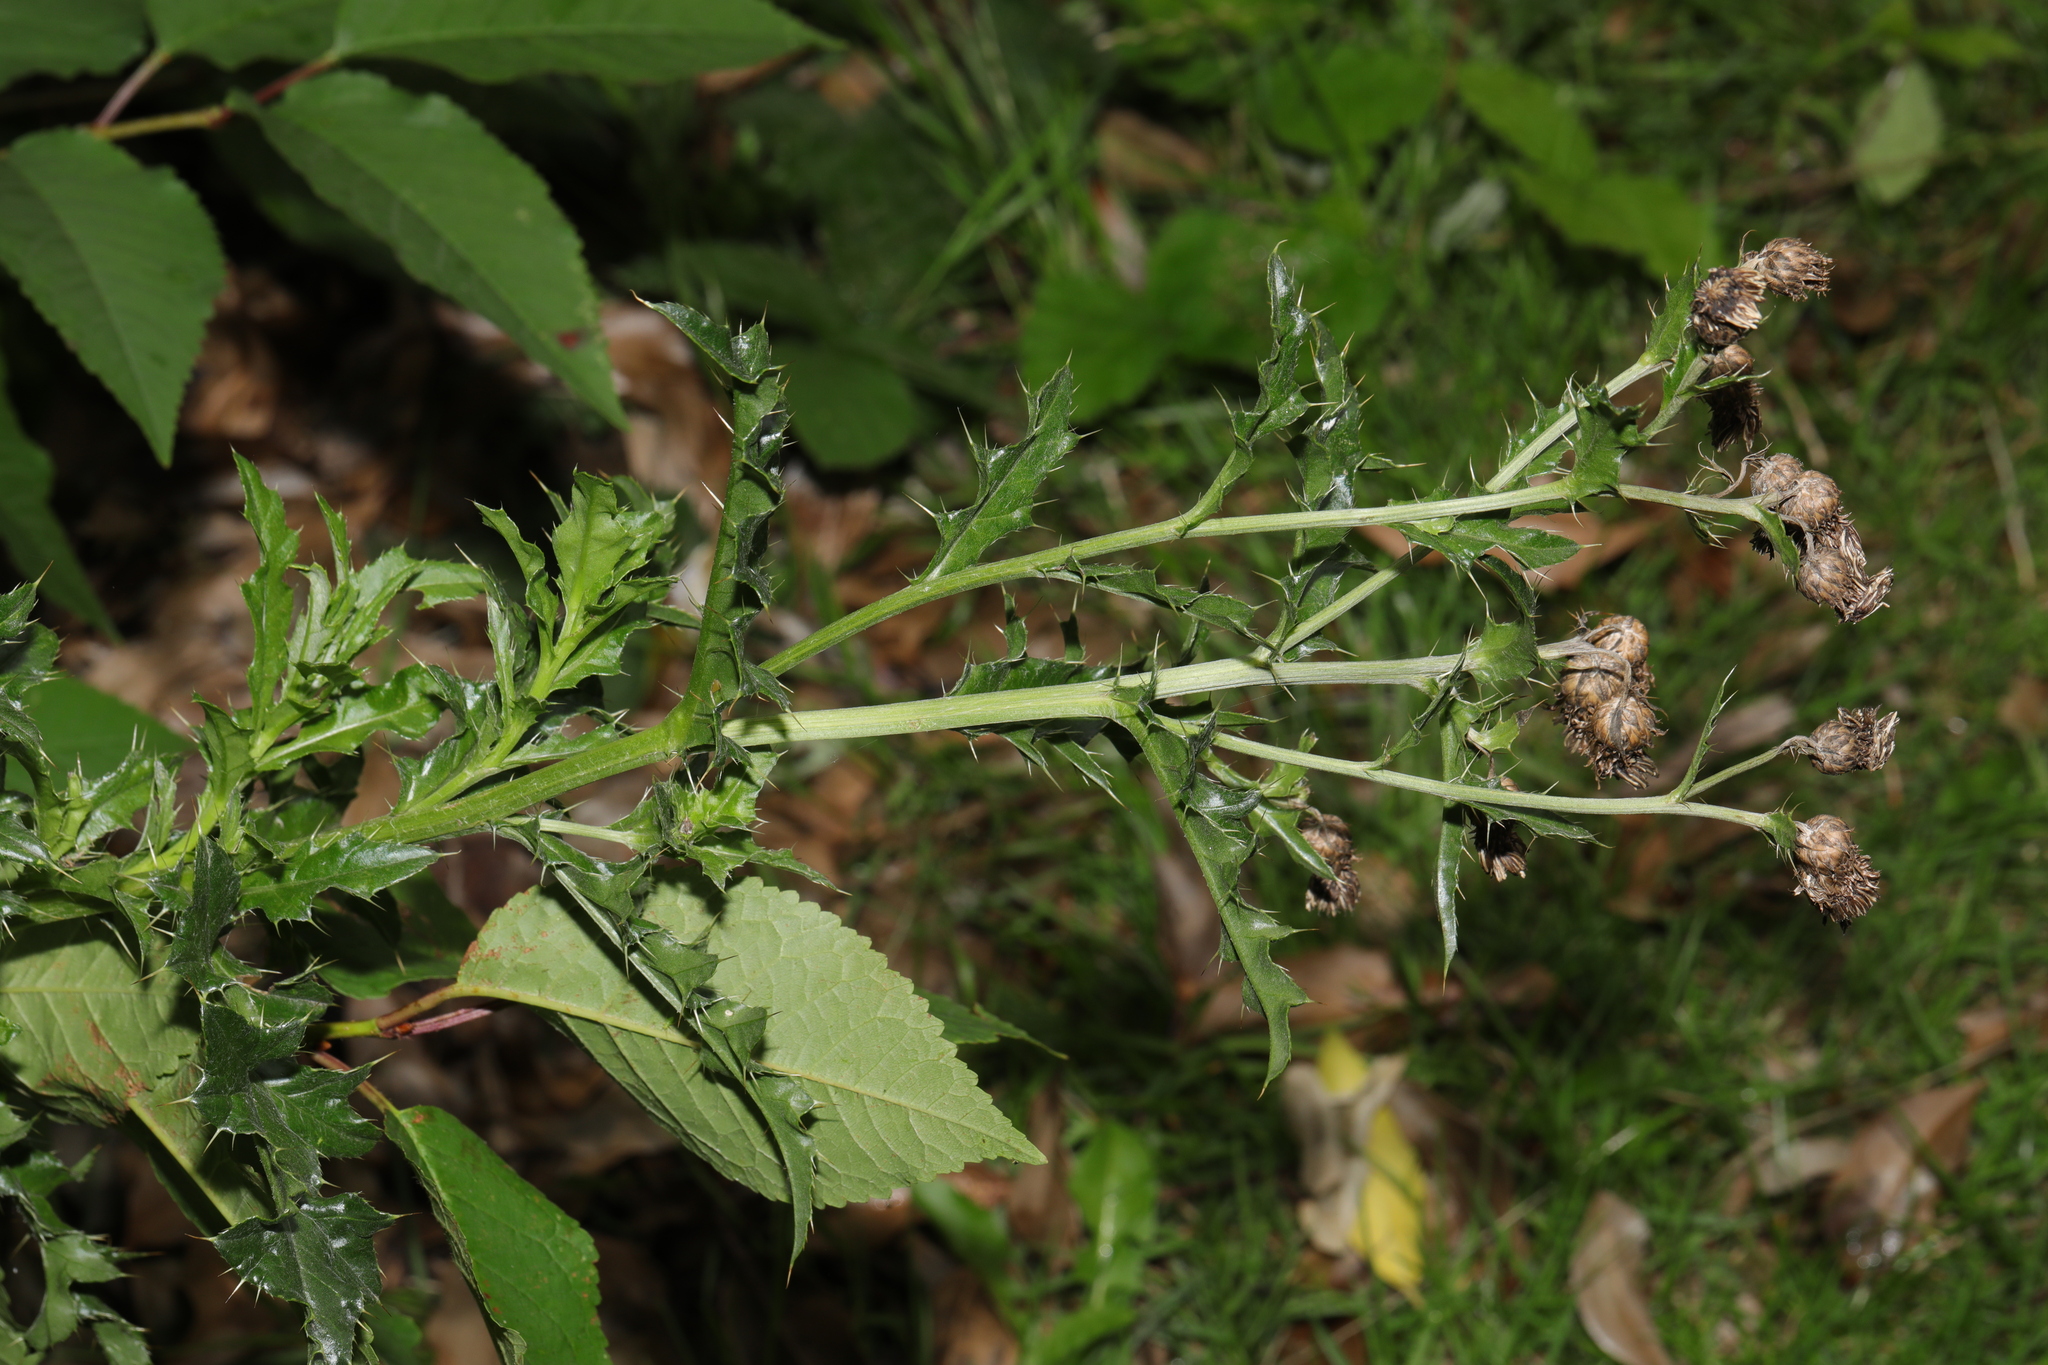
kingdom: Plantae
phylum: Tracheophyta
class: Magnoliopsida
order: Asterales
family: Asteraceae
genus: Cirsium
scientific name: Cirsium arvense
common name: Creeping thistle
